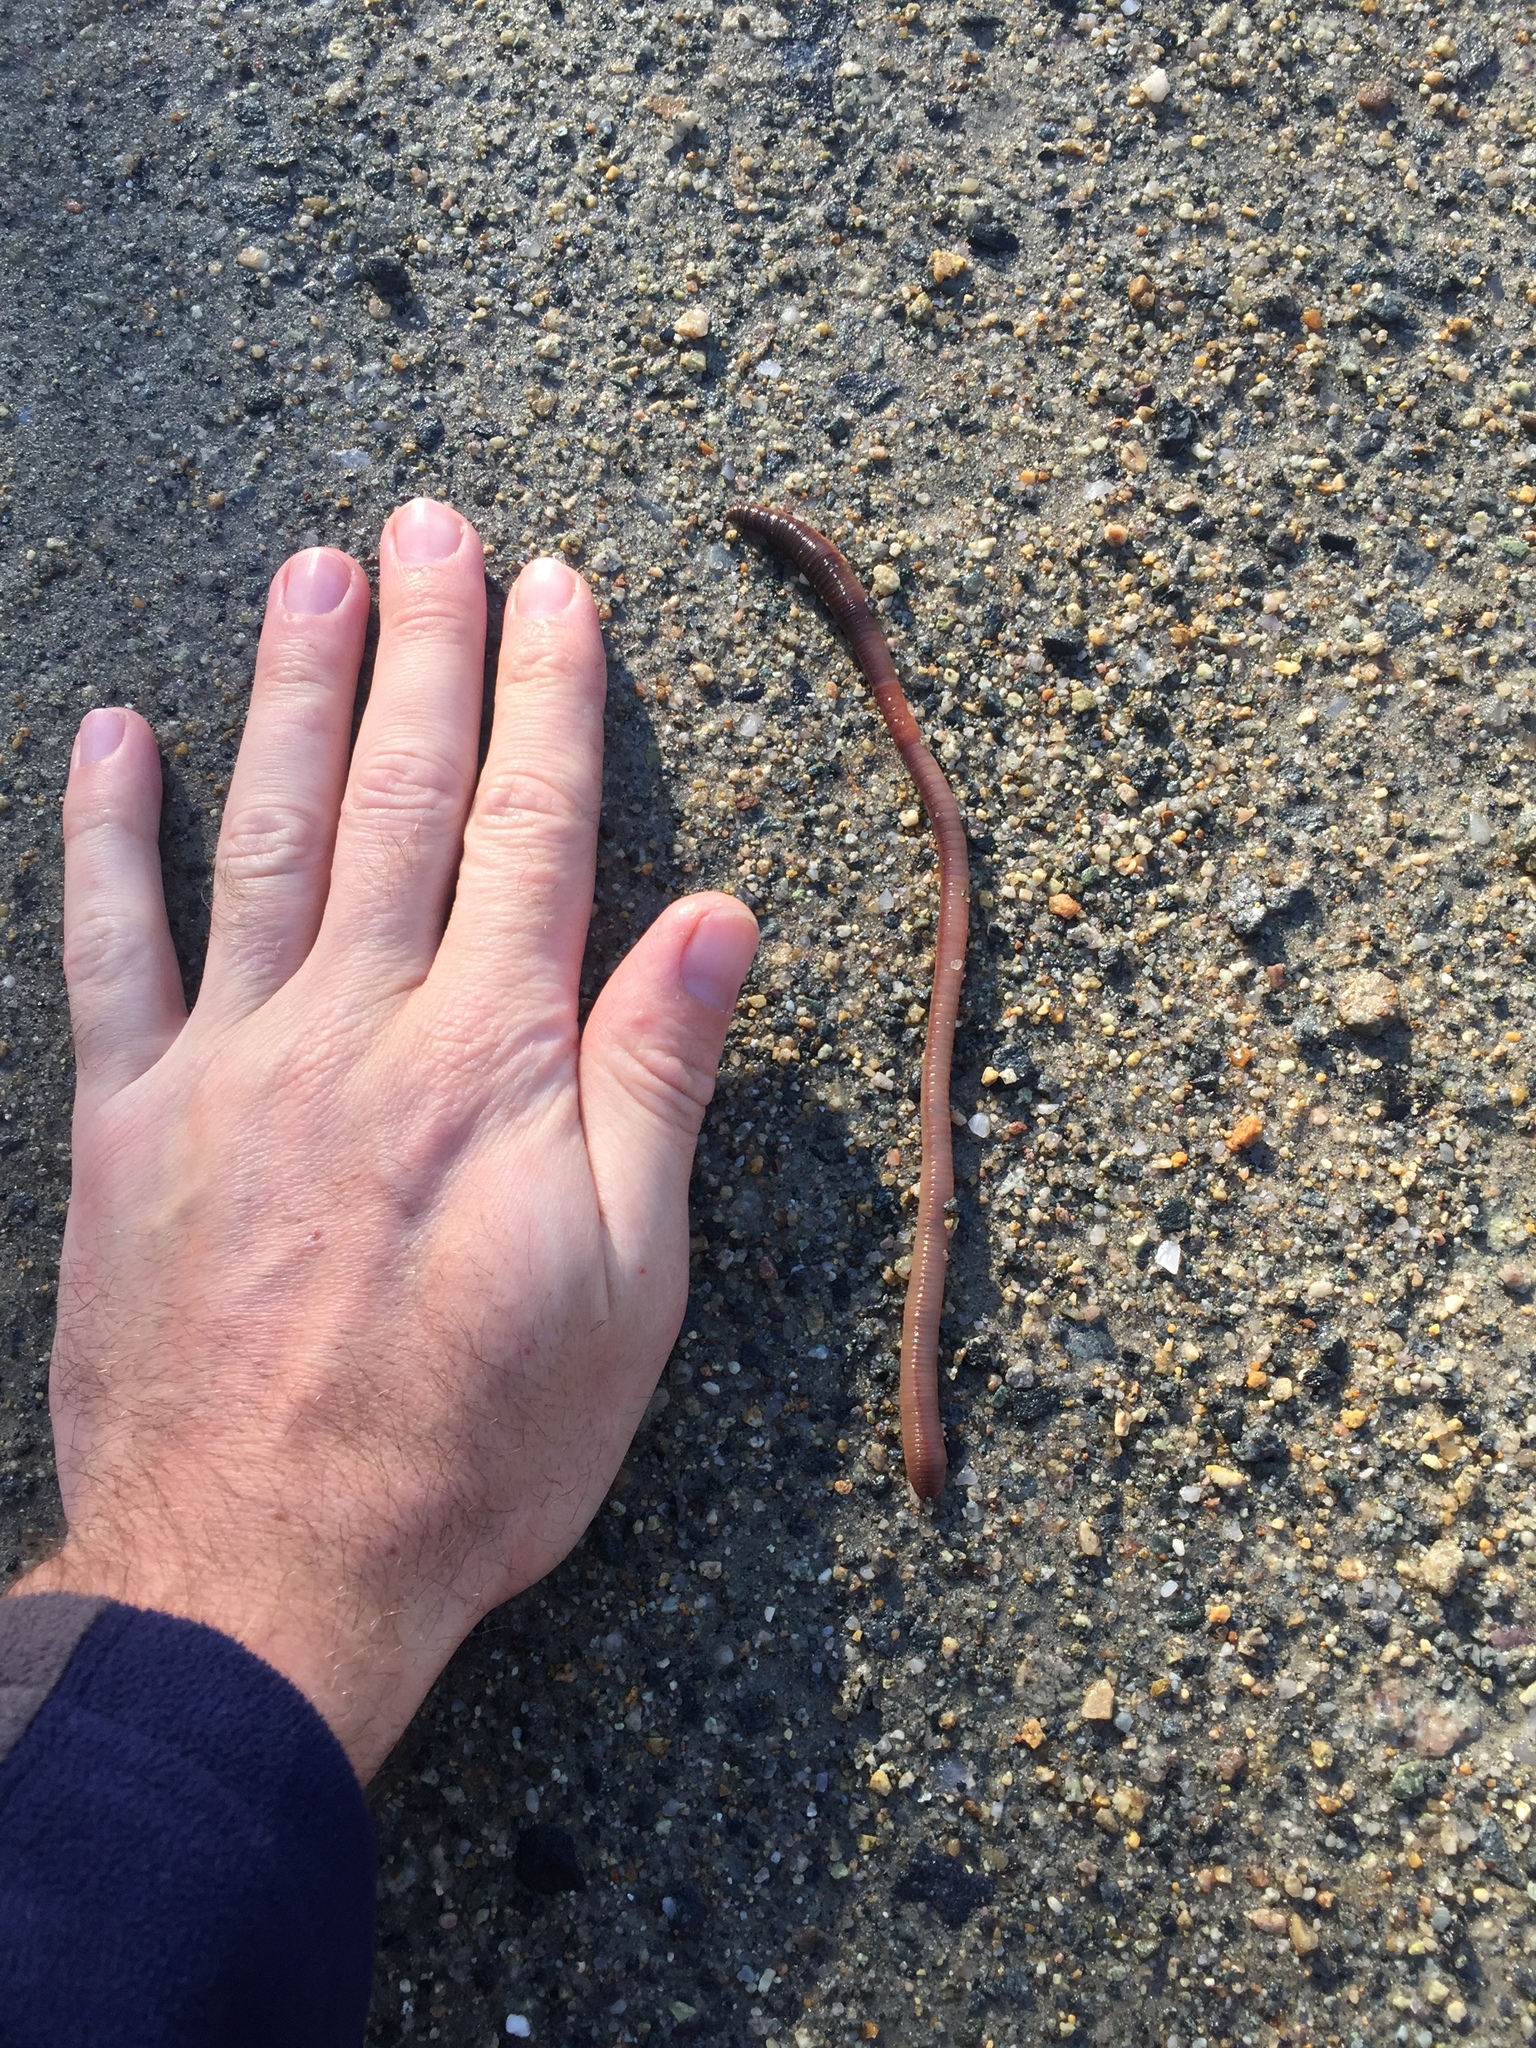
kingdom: Animalia
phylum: Annelida
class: Clitellata
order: Crassiclitellata
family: Lumbricidae
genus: Lumbricus
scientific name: Lumbricus terrestris
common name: Common earthworm
